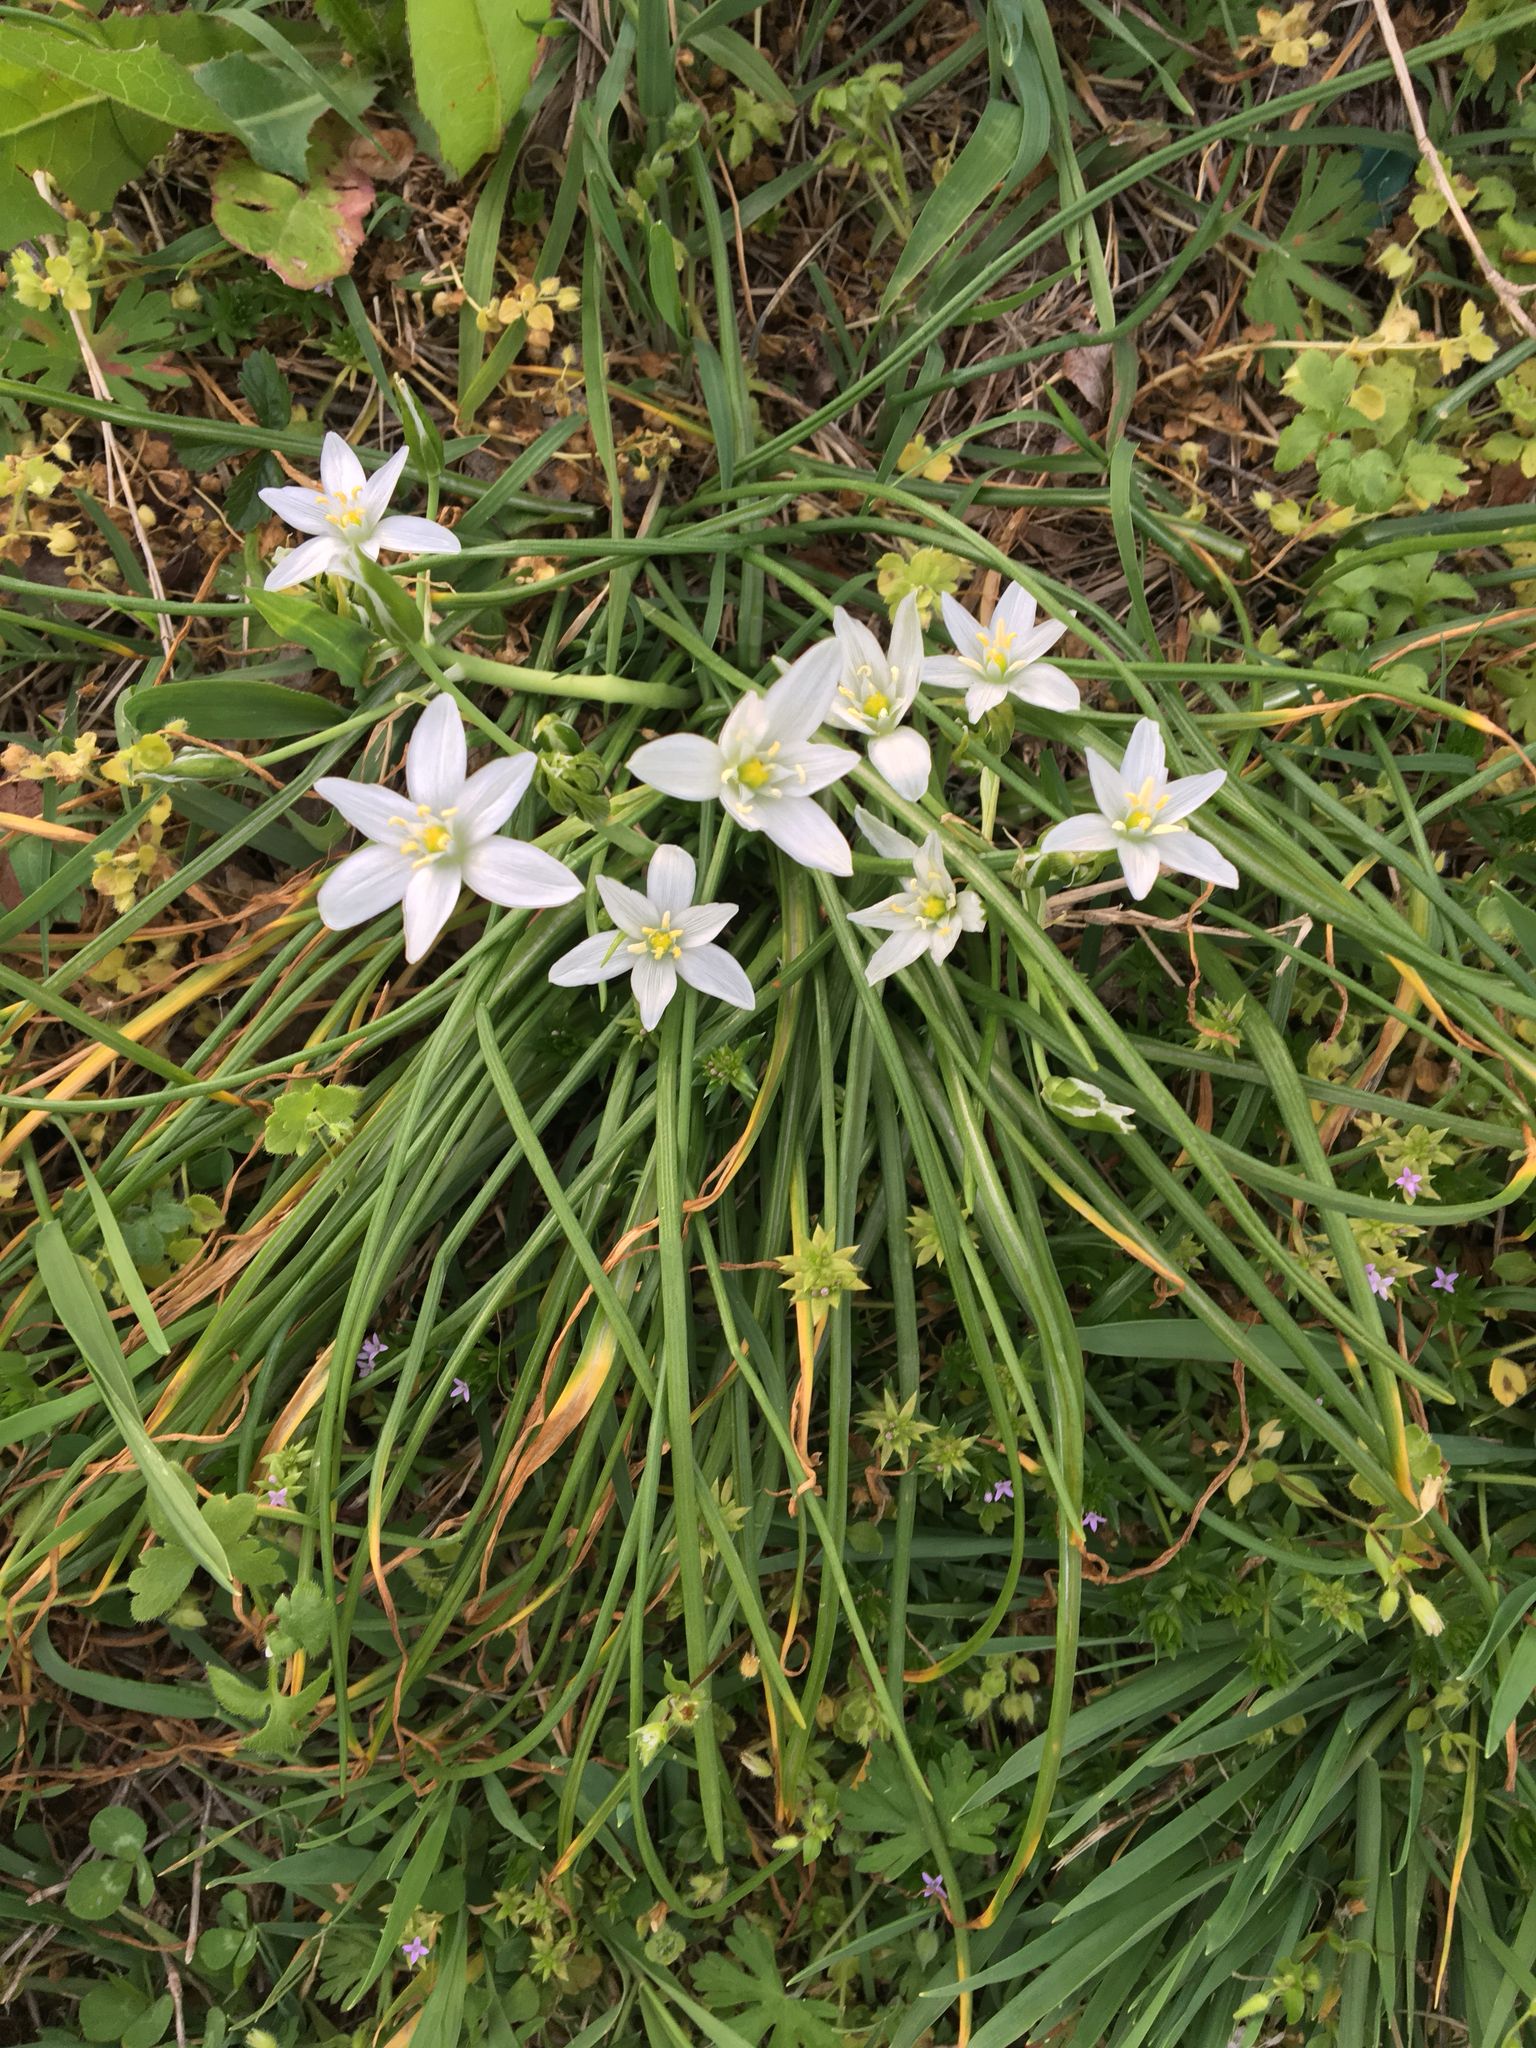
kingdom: Plantae
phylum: Tracheophyta
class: Liliopsida
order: Asparagales
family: Asparagaceae
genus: Ornithogalum
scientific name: Ornithogalum umbellatum
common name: Garden star-of-bethlehem
